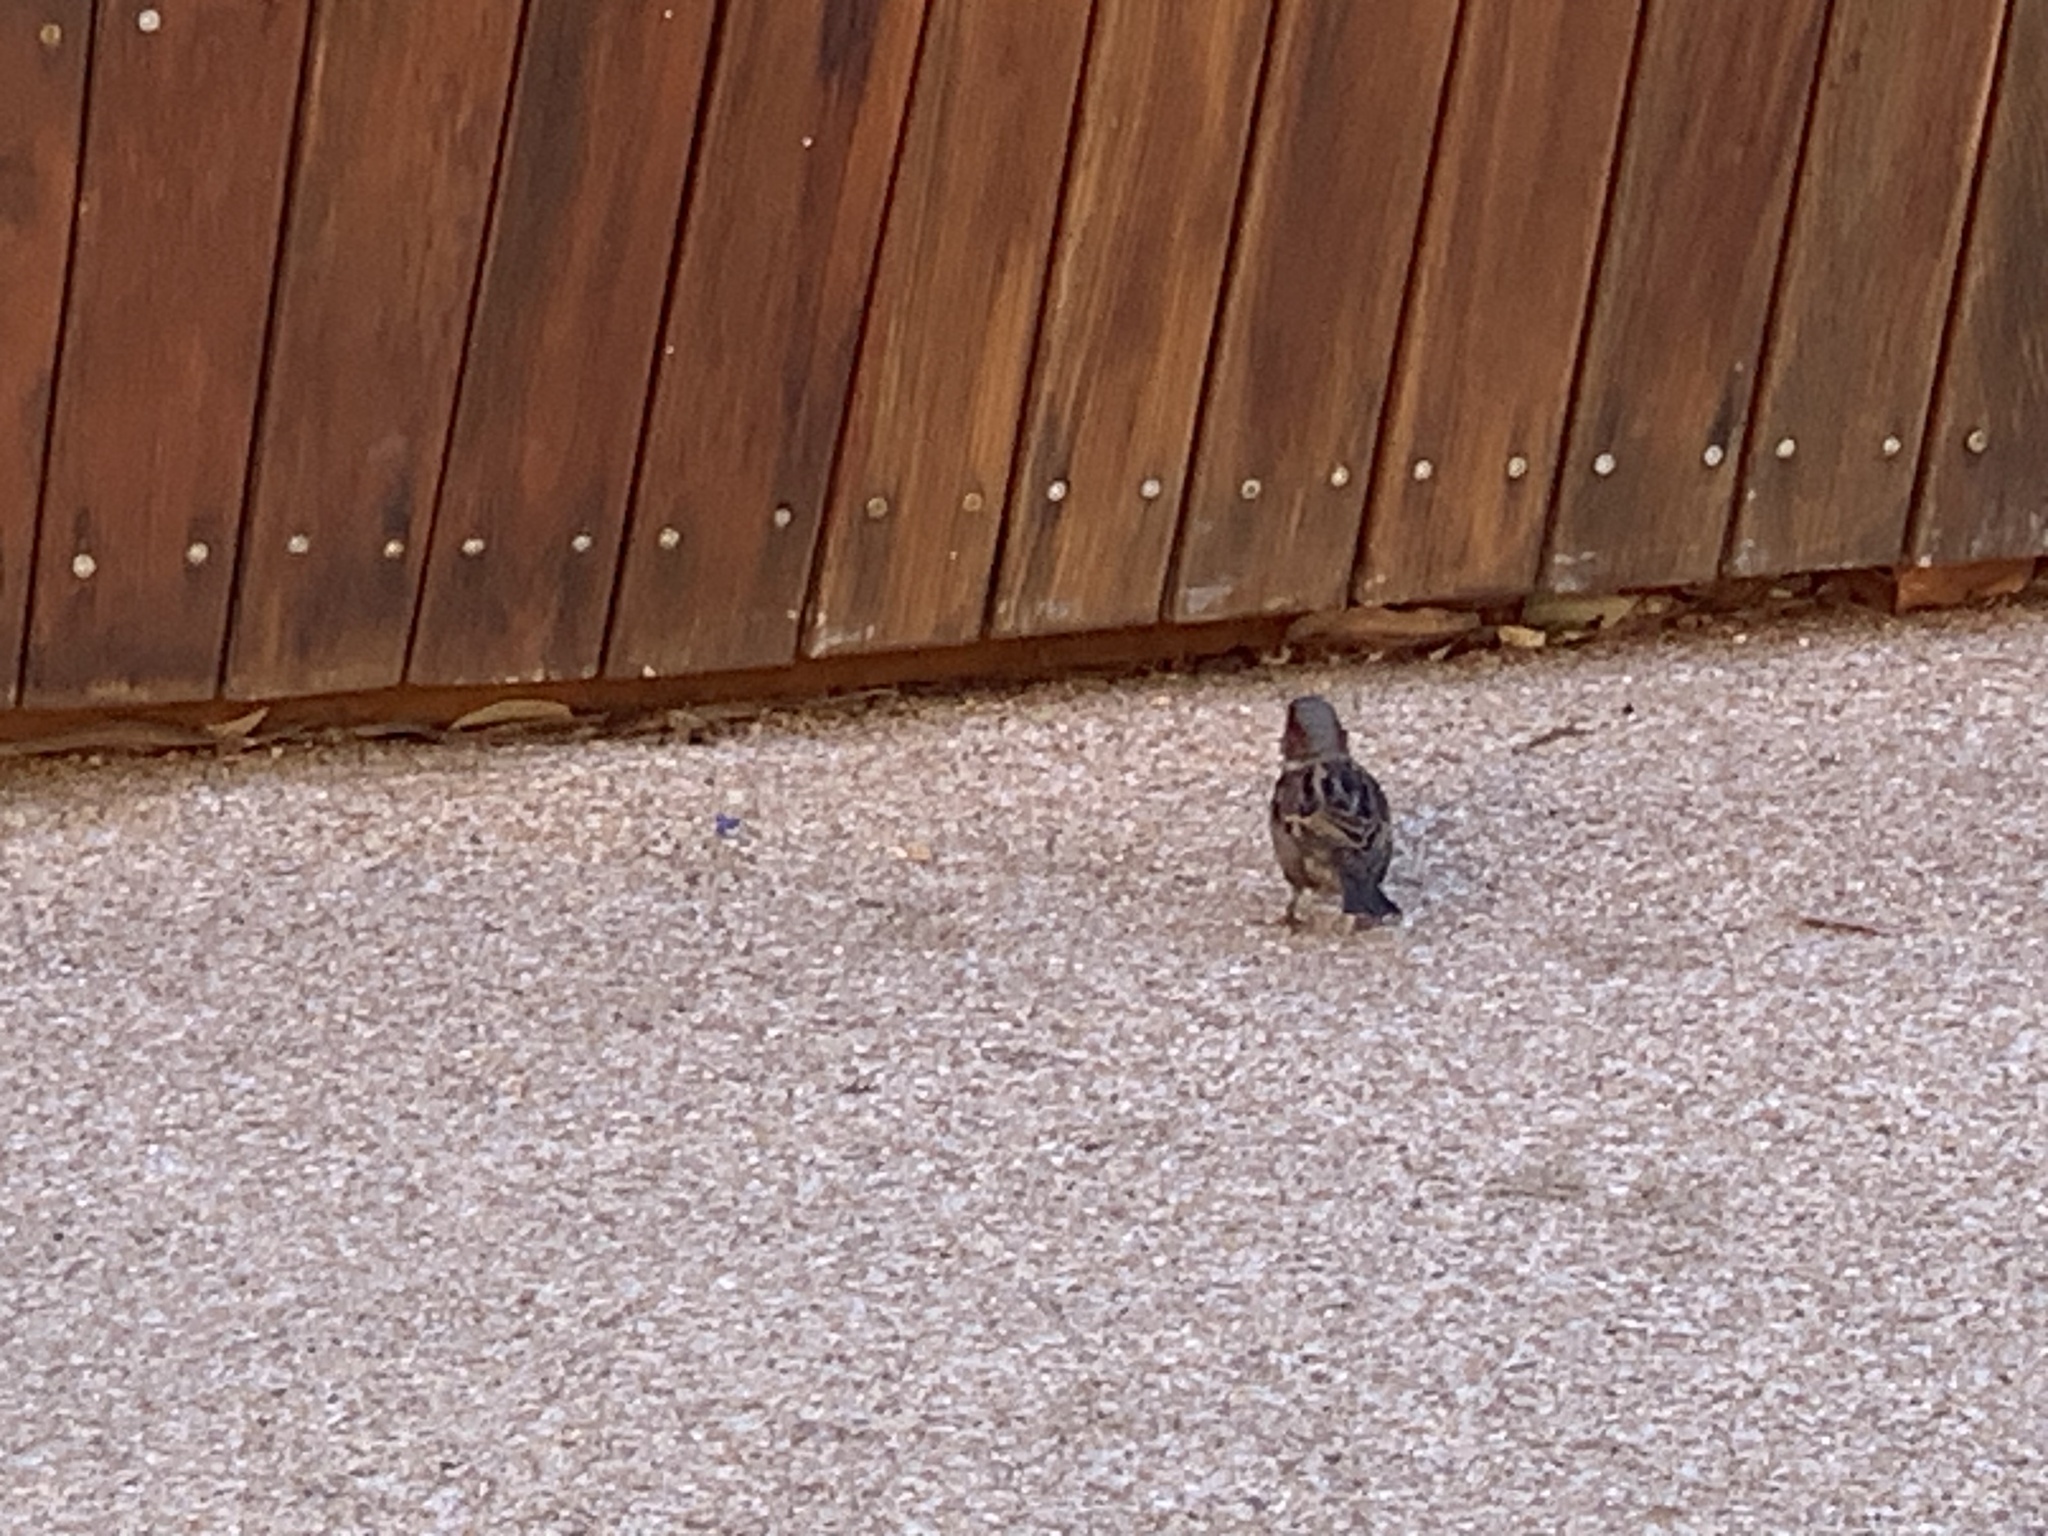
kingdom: Animalia
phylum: Chordata
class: Aves
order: Passeriformes
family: Passeridae
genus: Passer
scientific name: Passer domesticus
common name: House sparrow
